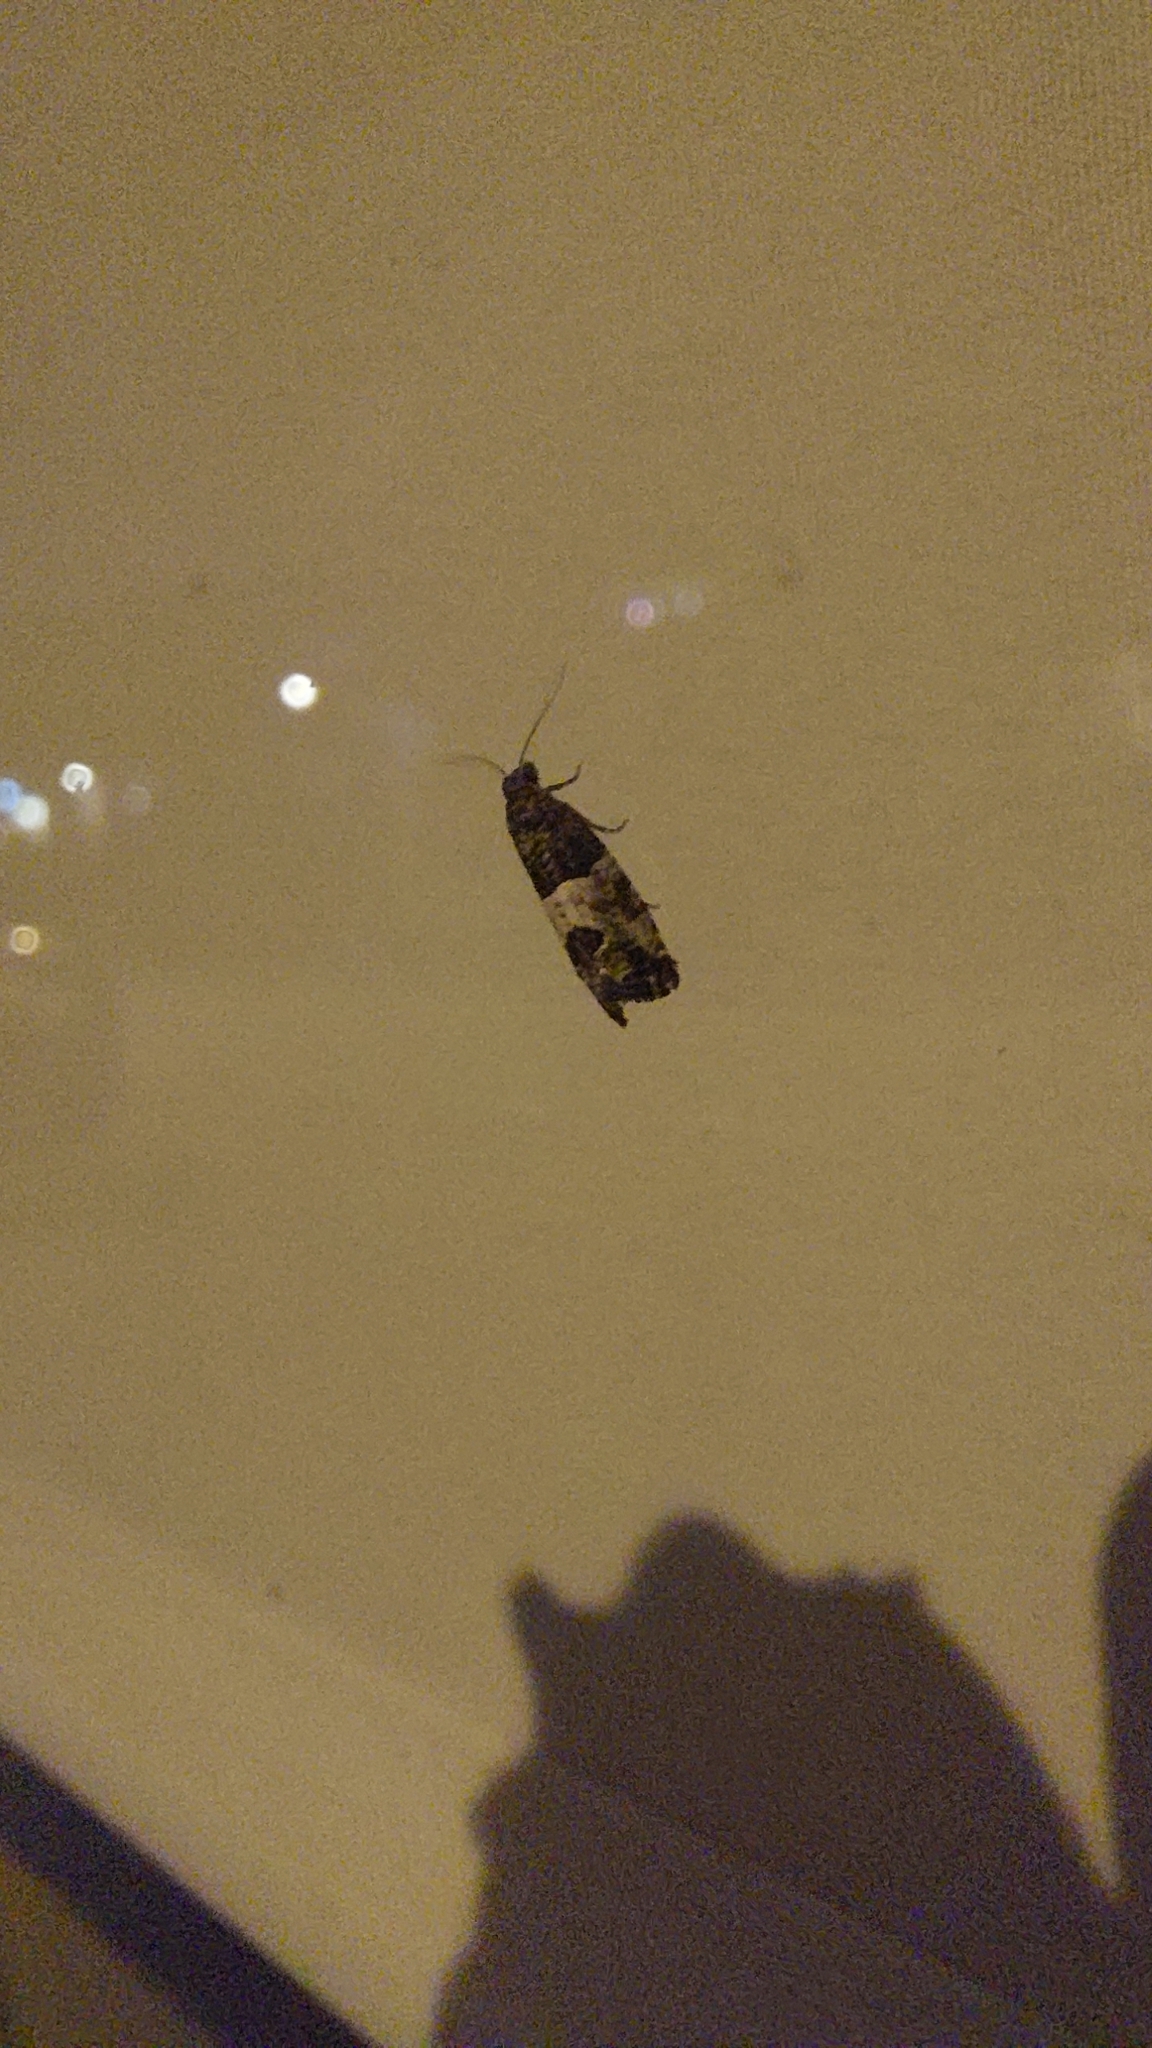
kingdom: Animalia
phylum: Arthropoda
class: Insecta
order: Lepidoptera
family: Tortricidae
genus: Spilonota
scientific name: Spilonota ocellana
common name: Bud moth
